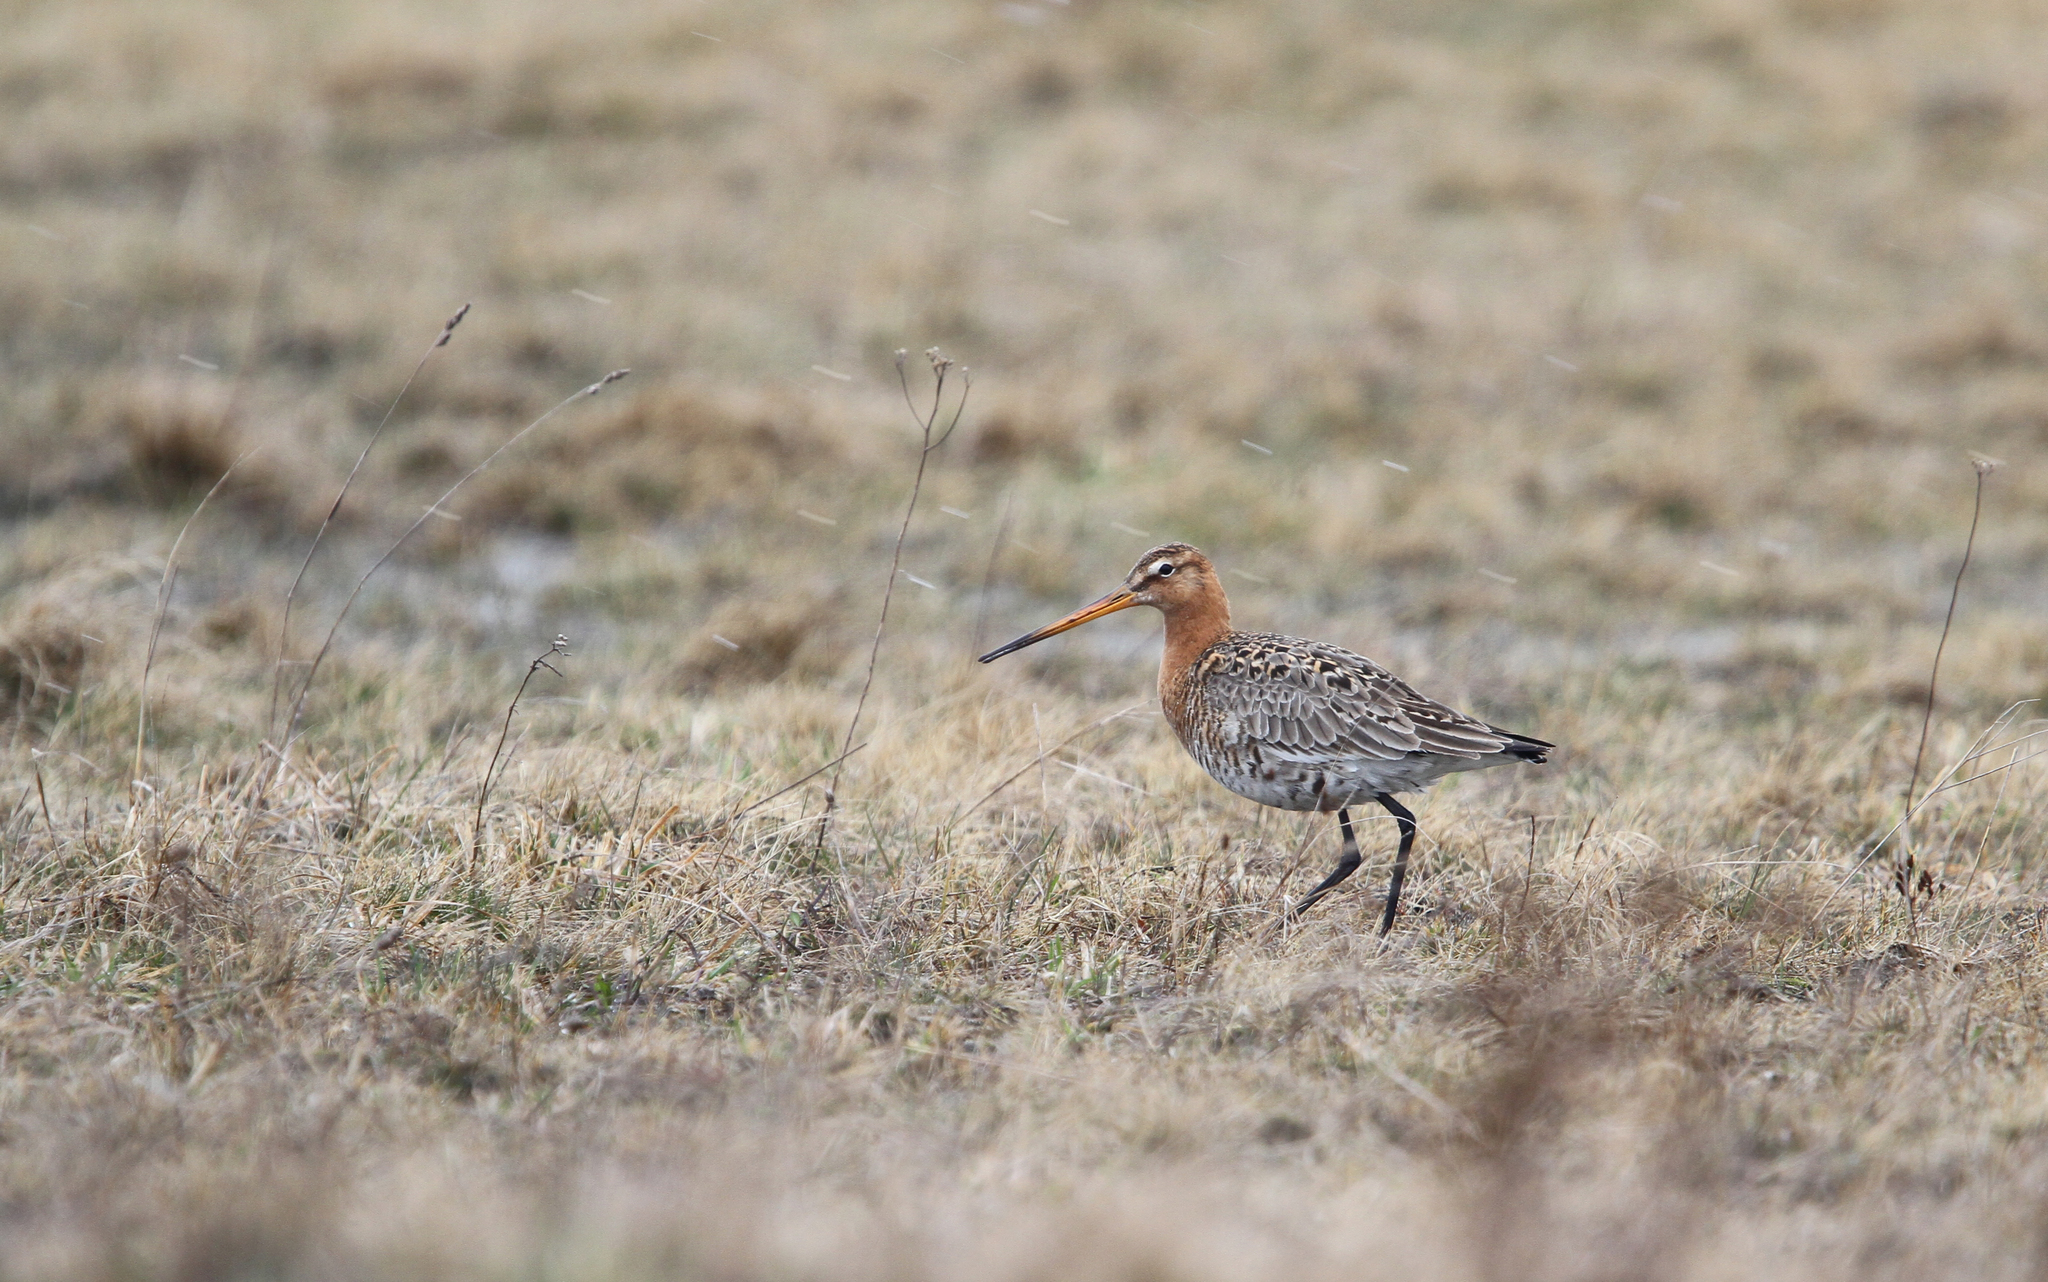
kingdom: Animalia
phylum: Chordata
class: Aves
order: Charadriiformes
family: Scolopacidae
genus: Limosa
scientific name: Limosa limosa
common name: Black-tailed godwit
